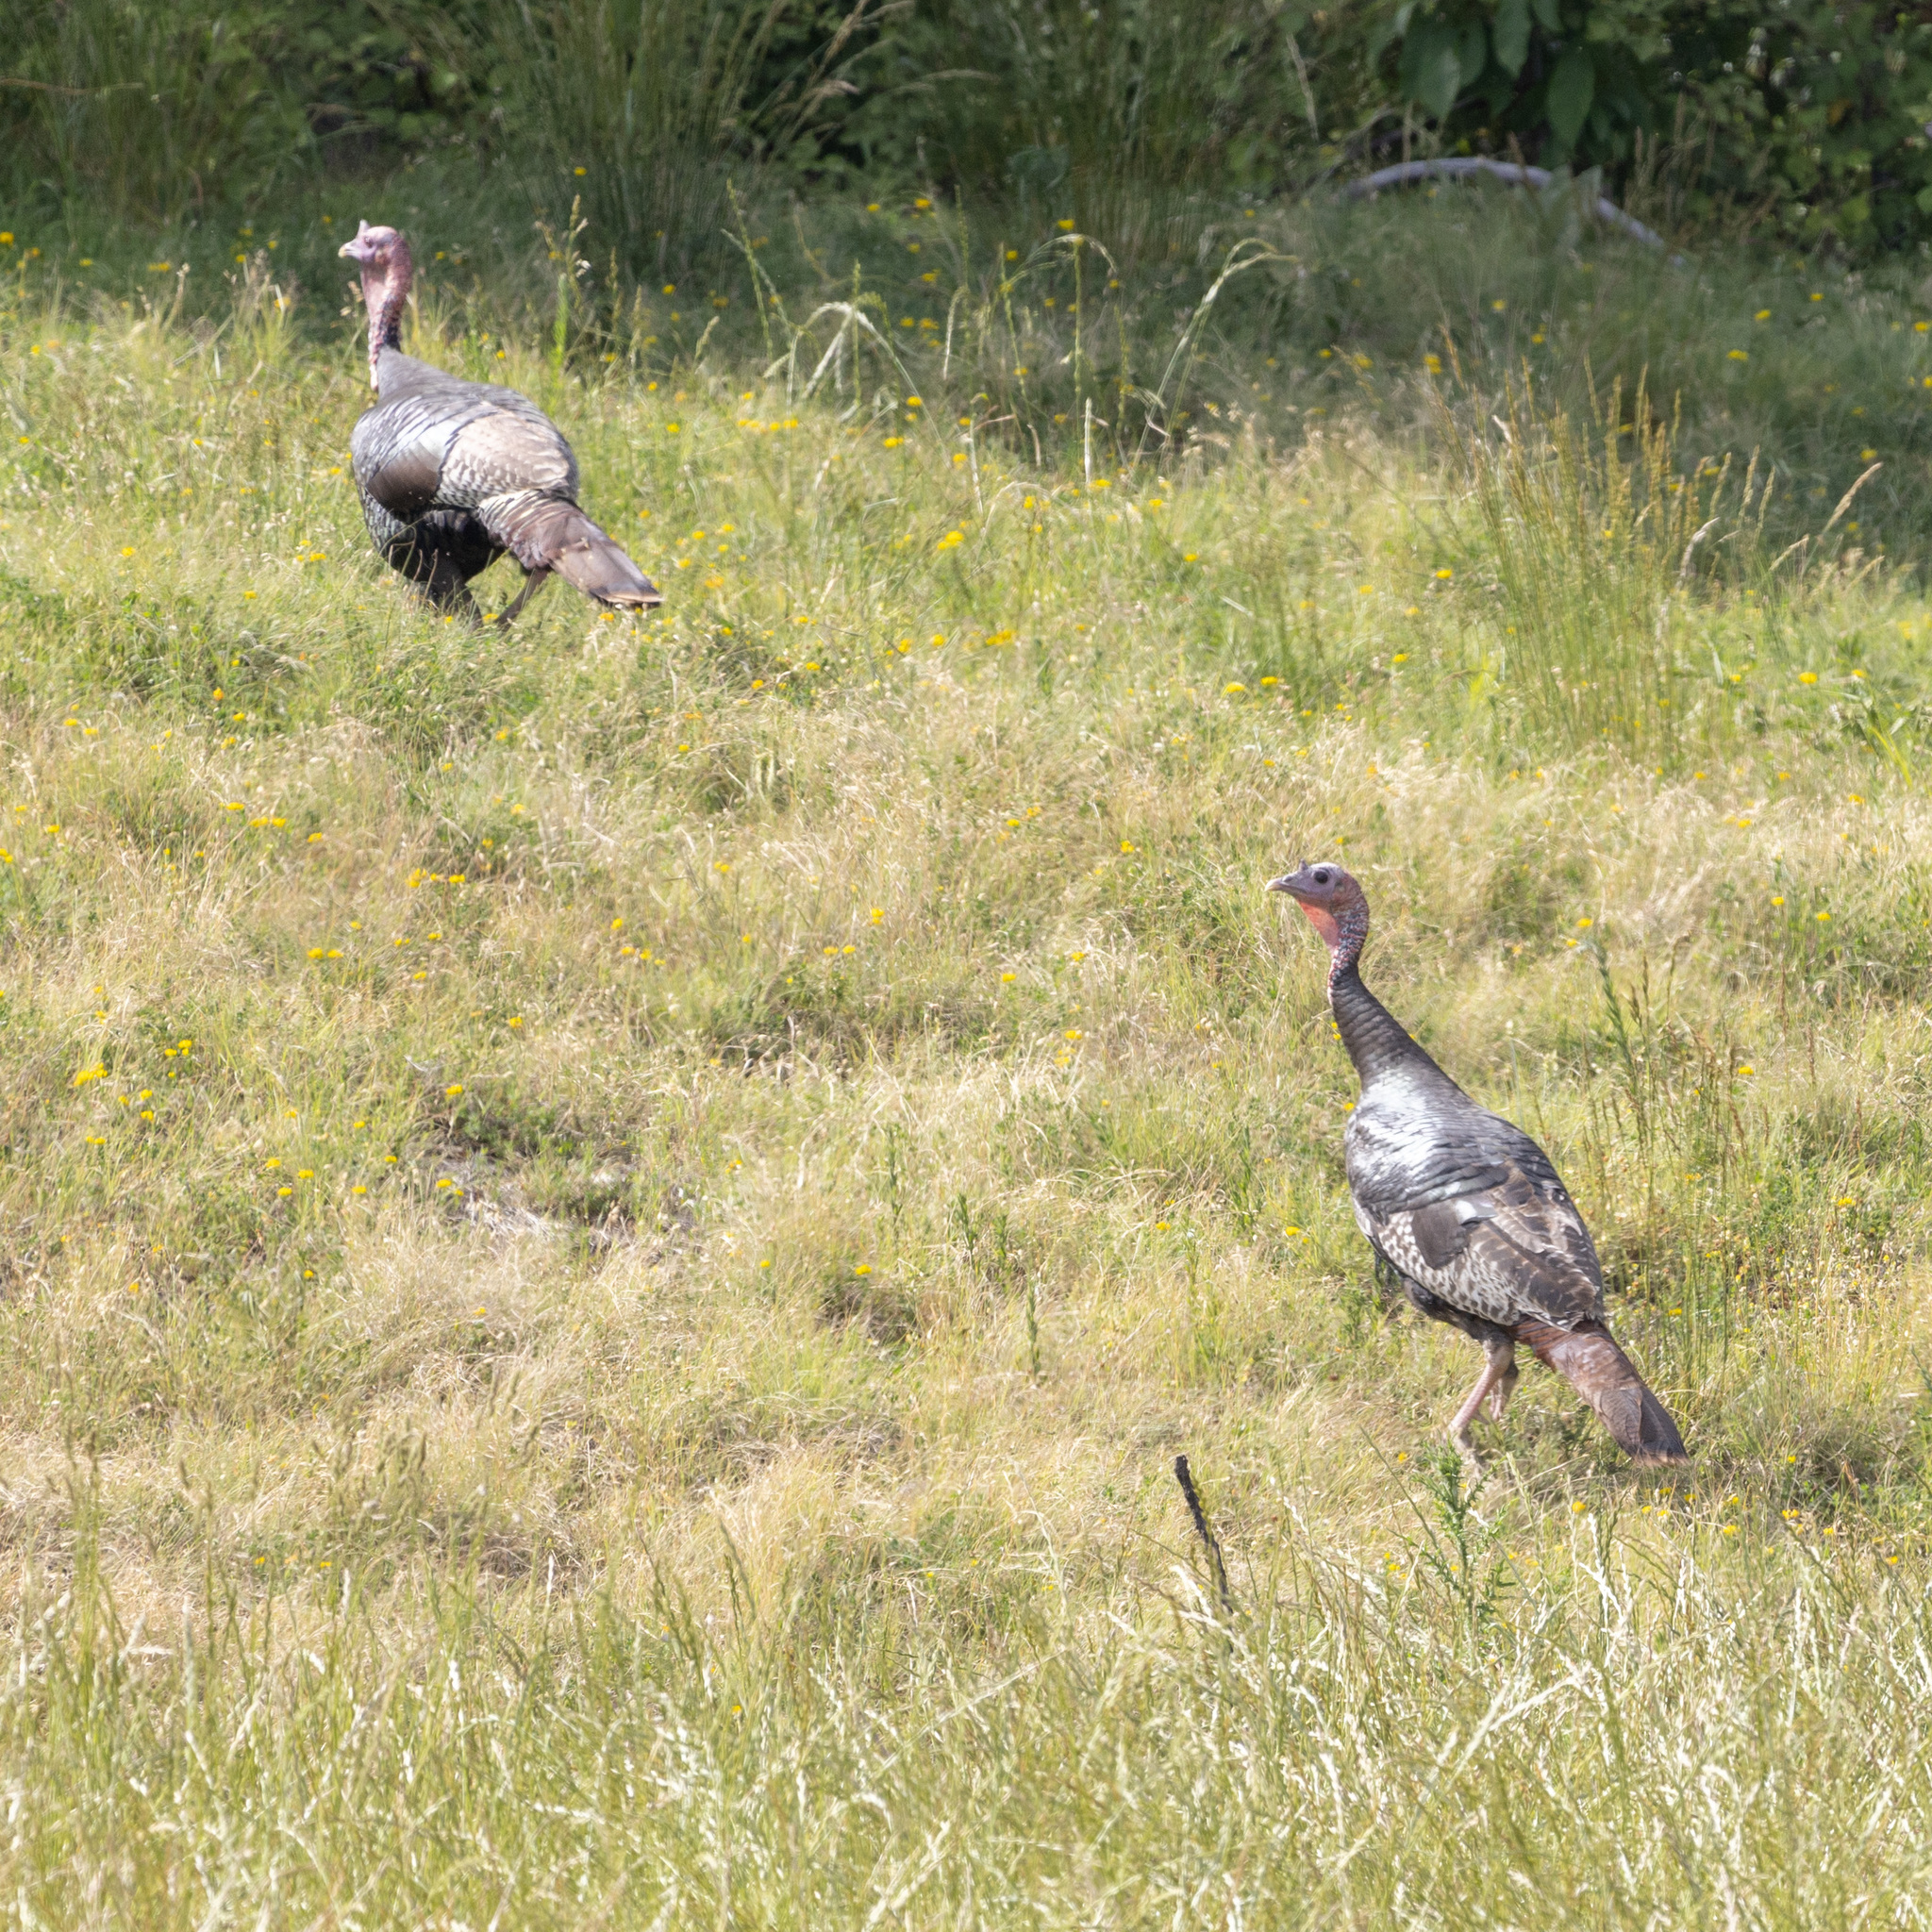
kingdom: Animalia
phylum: Chordata
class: Aves
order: Galliformes
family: Phasianidae
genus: Meleagris
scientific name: Meleagris gallopavo
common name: Wild turkey
